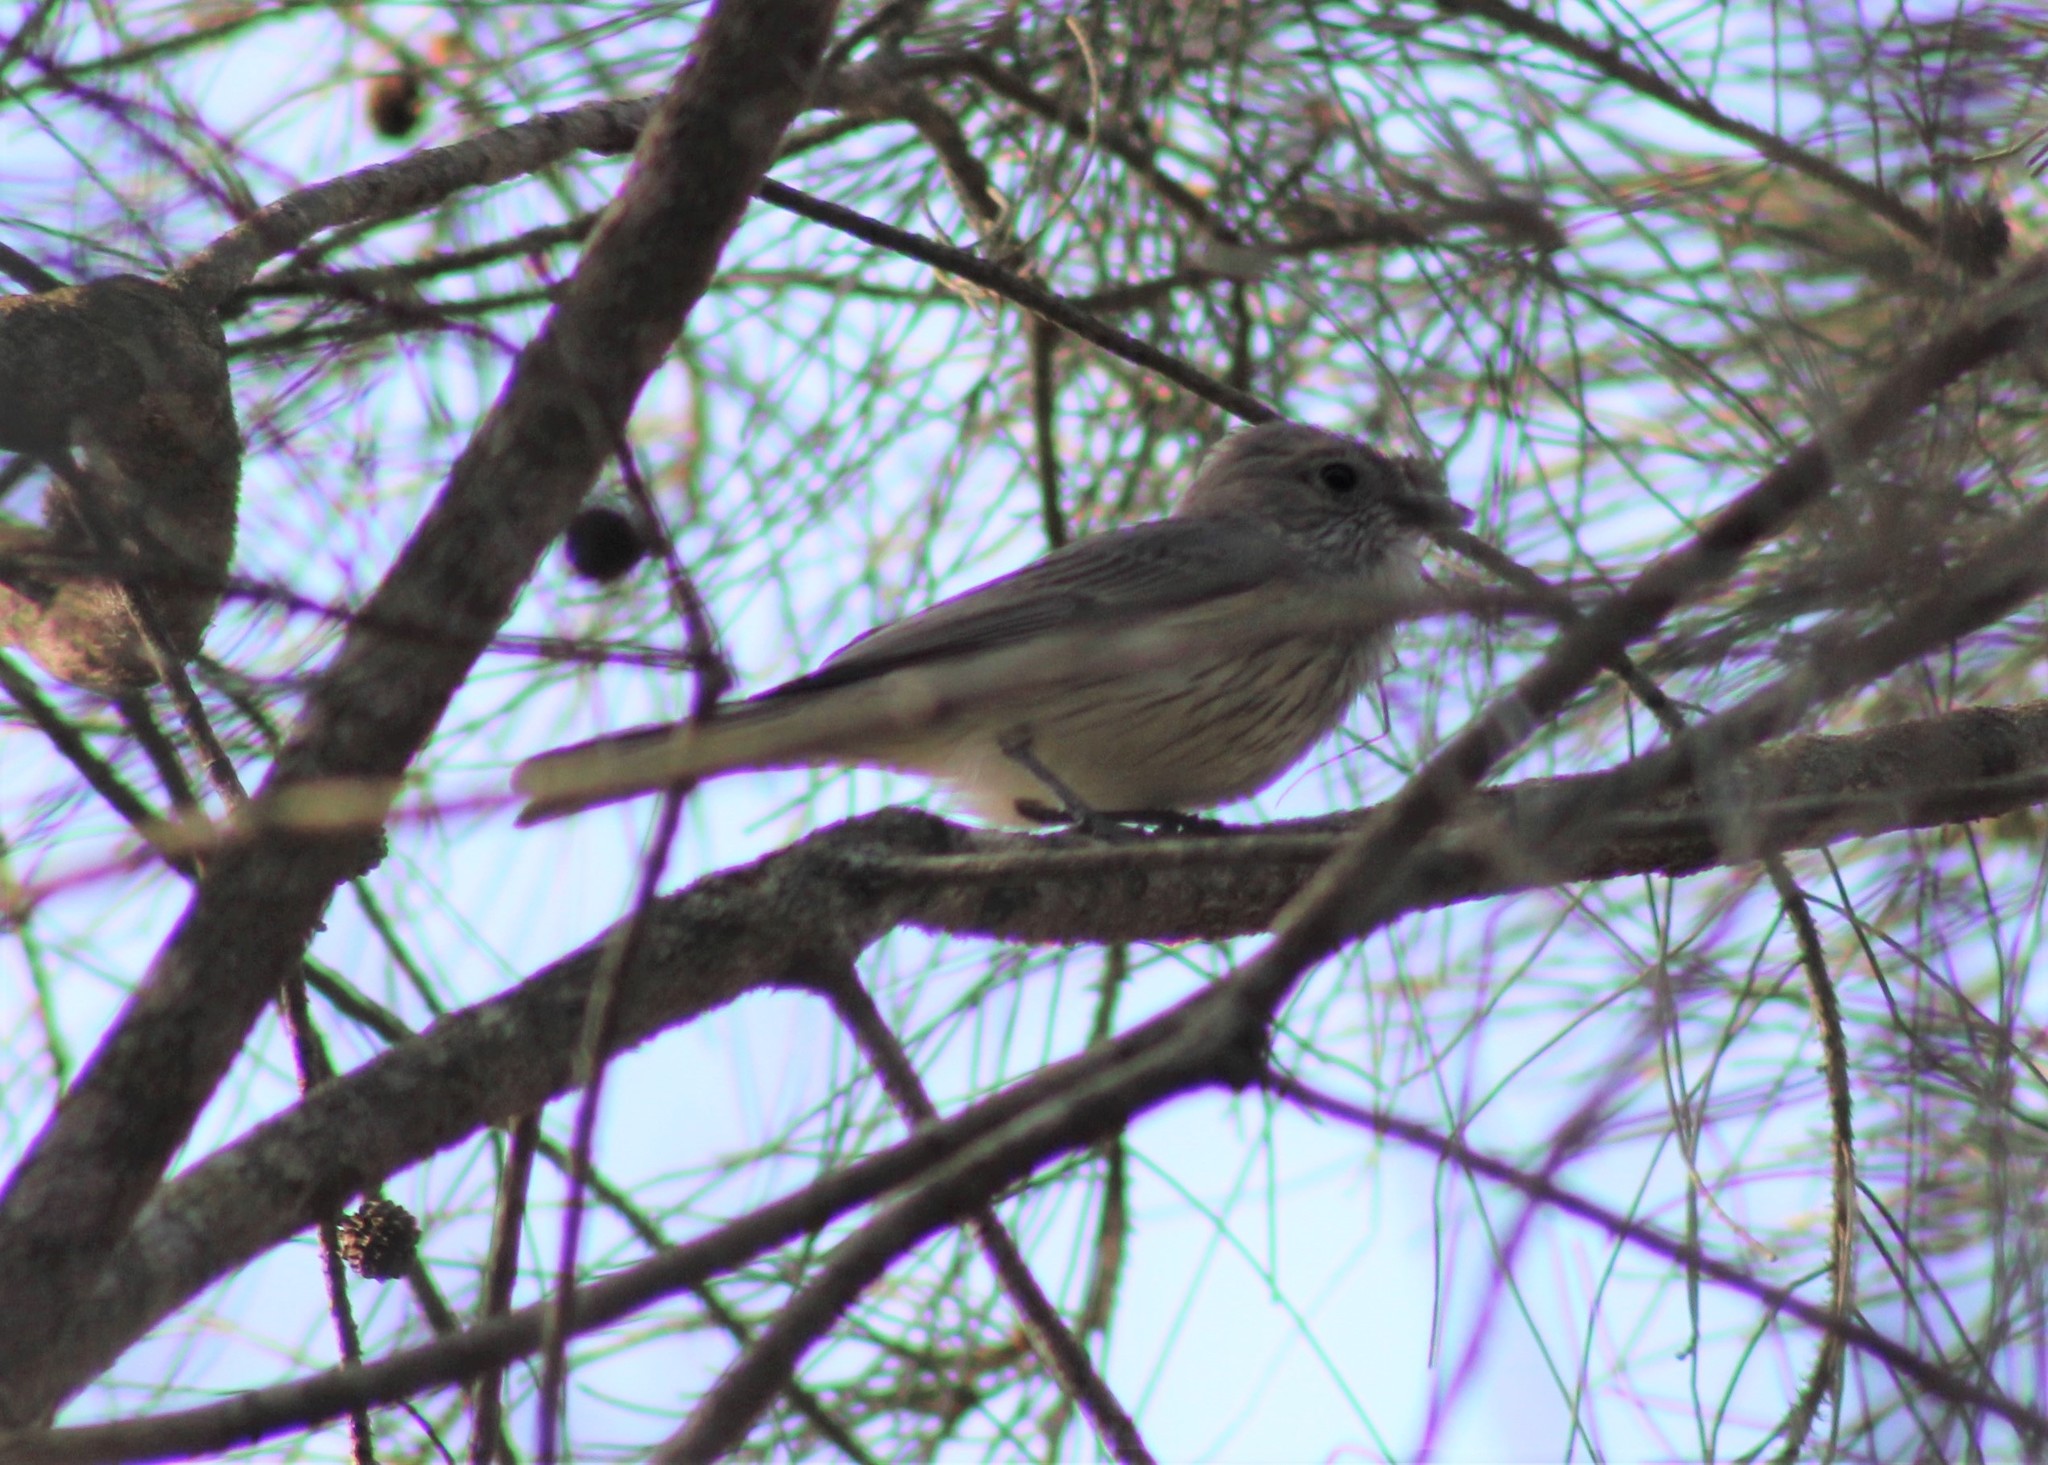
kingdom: Animalia
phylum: Chordata
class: Aves
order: Passeriformes
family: Pachycephalidae
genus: Pachycephala
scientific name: Pachycephala rufiventris
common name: Rufous whistler
